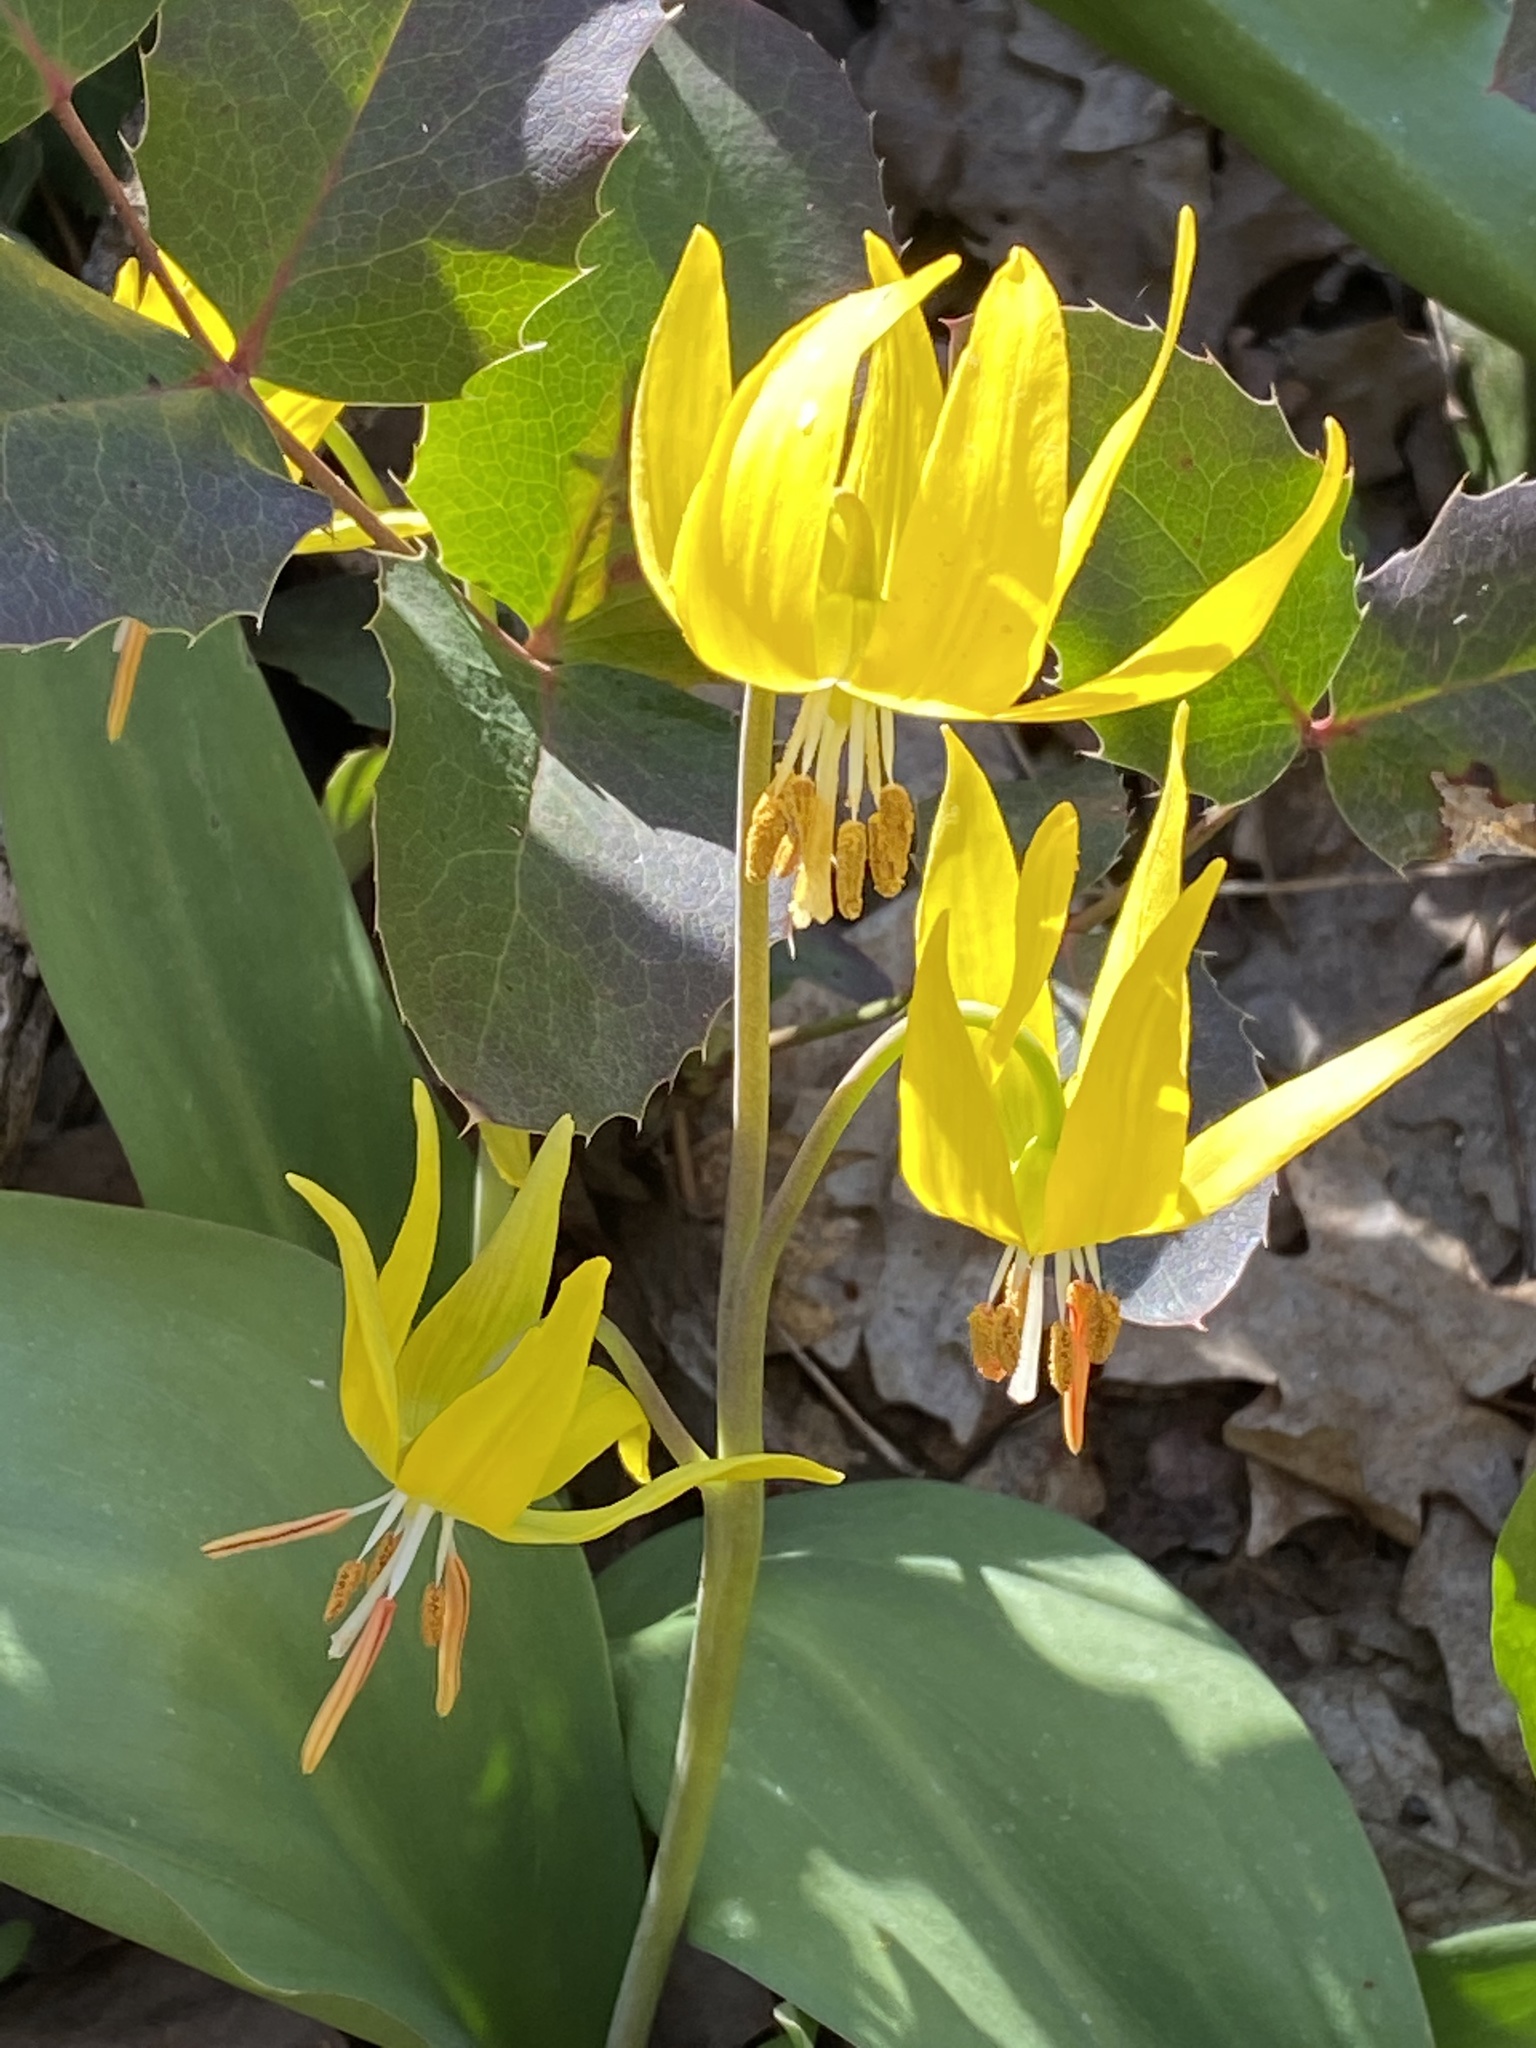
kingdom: Plantae
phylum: Tracheophyta
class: Liliopsida
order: Liliales
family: Liliaceae
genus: Erythronium
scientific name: Erythronium grandiflorum
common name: Avalanche-lily
